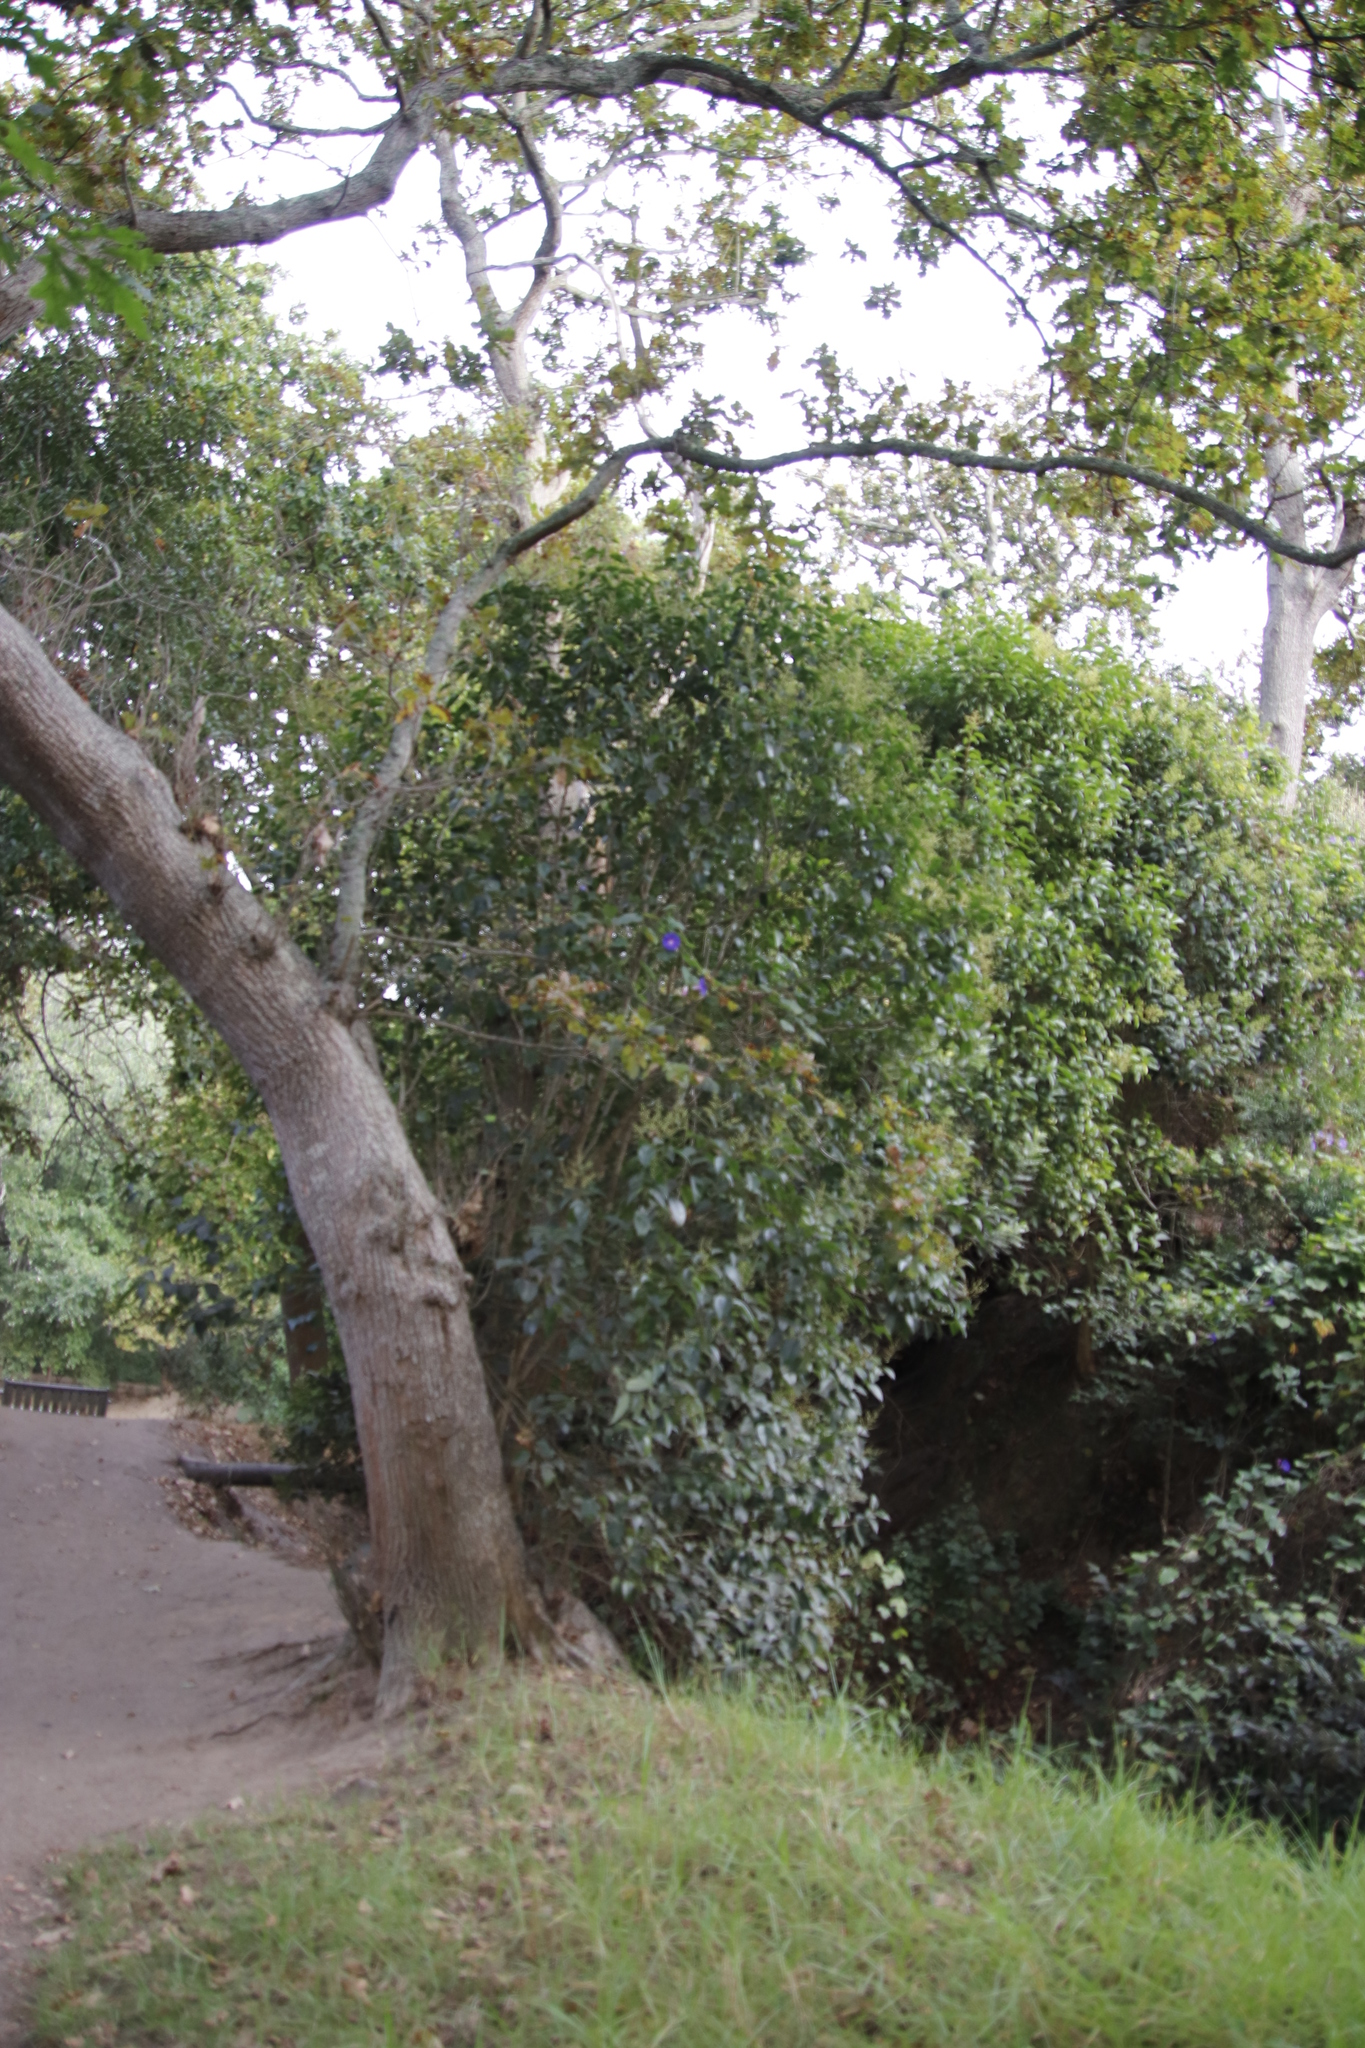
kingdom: Plantae
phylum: Tracheophyta
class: Magnoliopsida
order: Lamiales
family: Oleaceae
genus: Ligustrum
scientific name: Ligustrum lucidum
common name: Glossy privet
